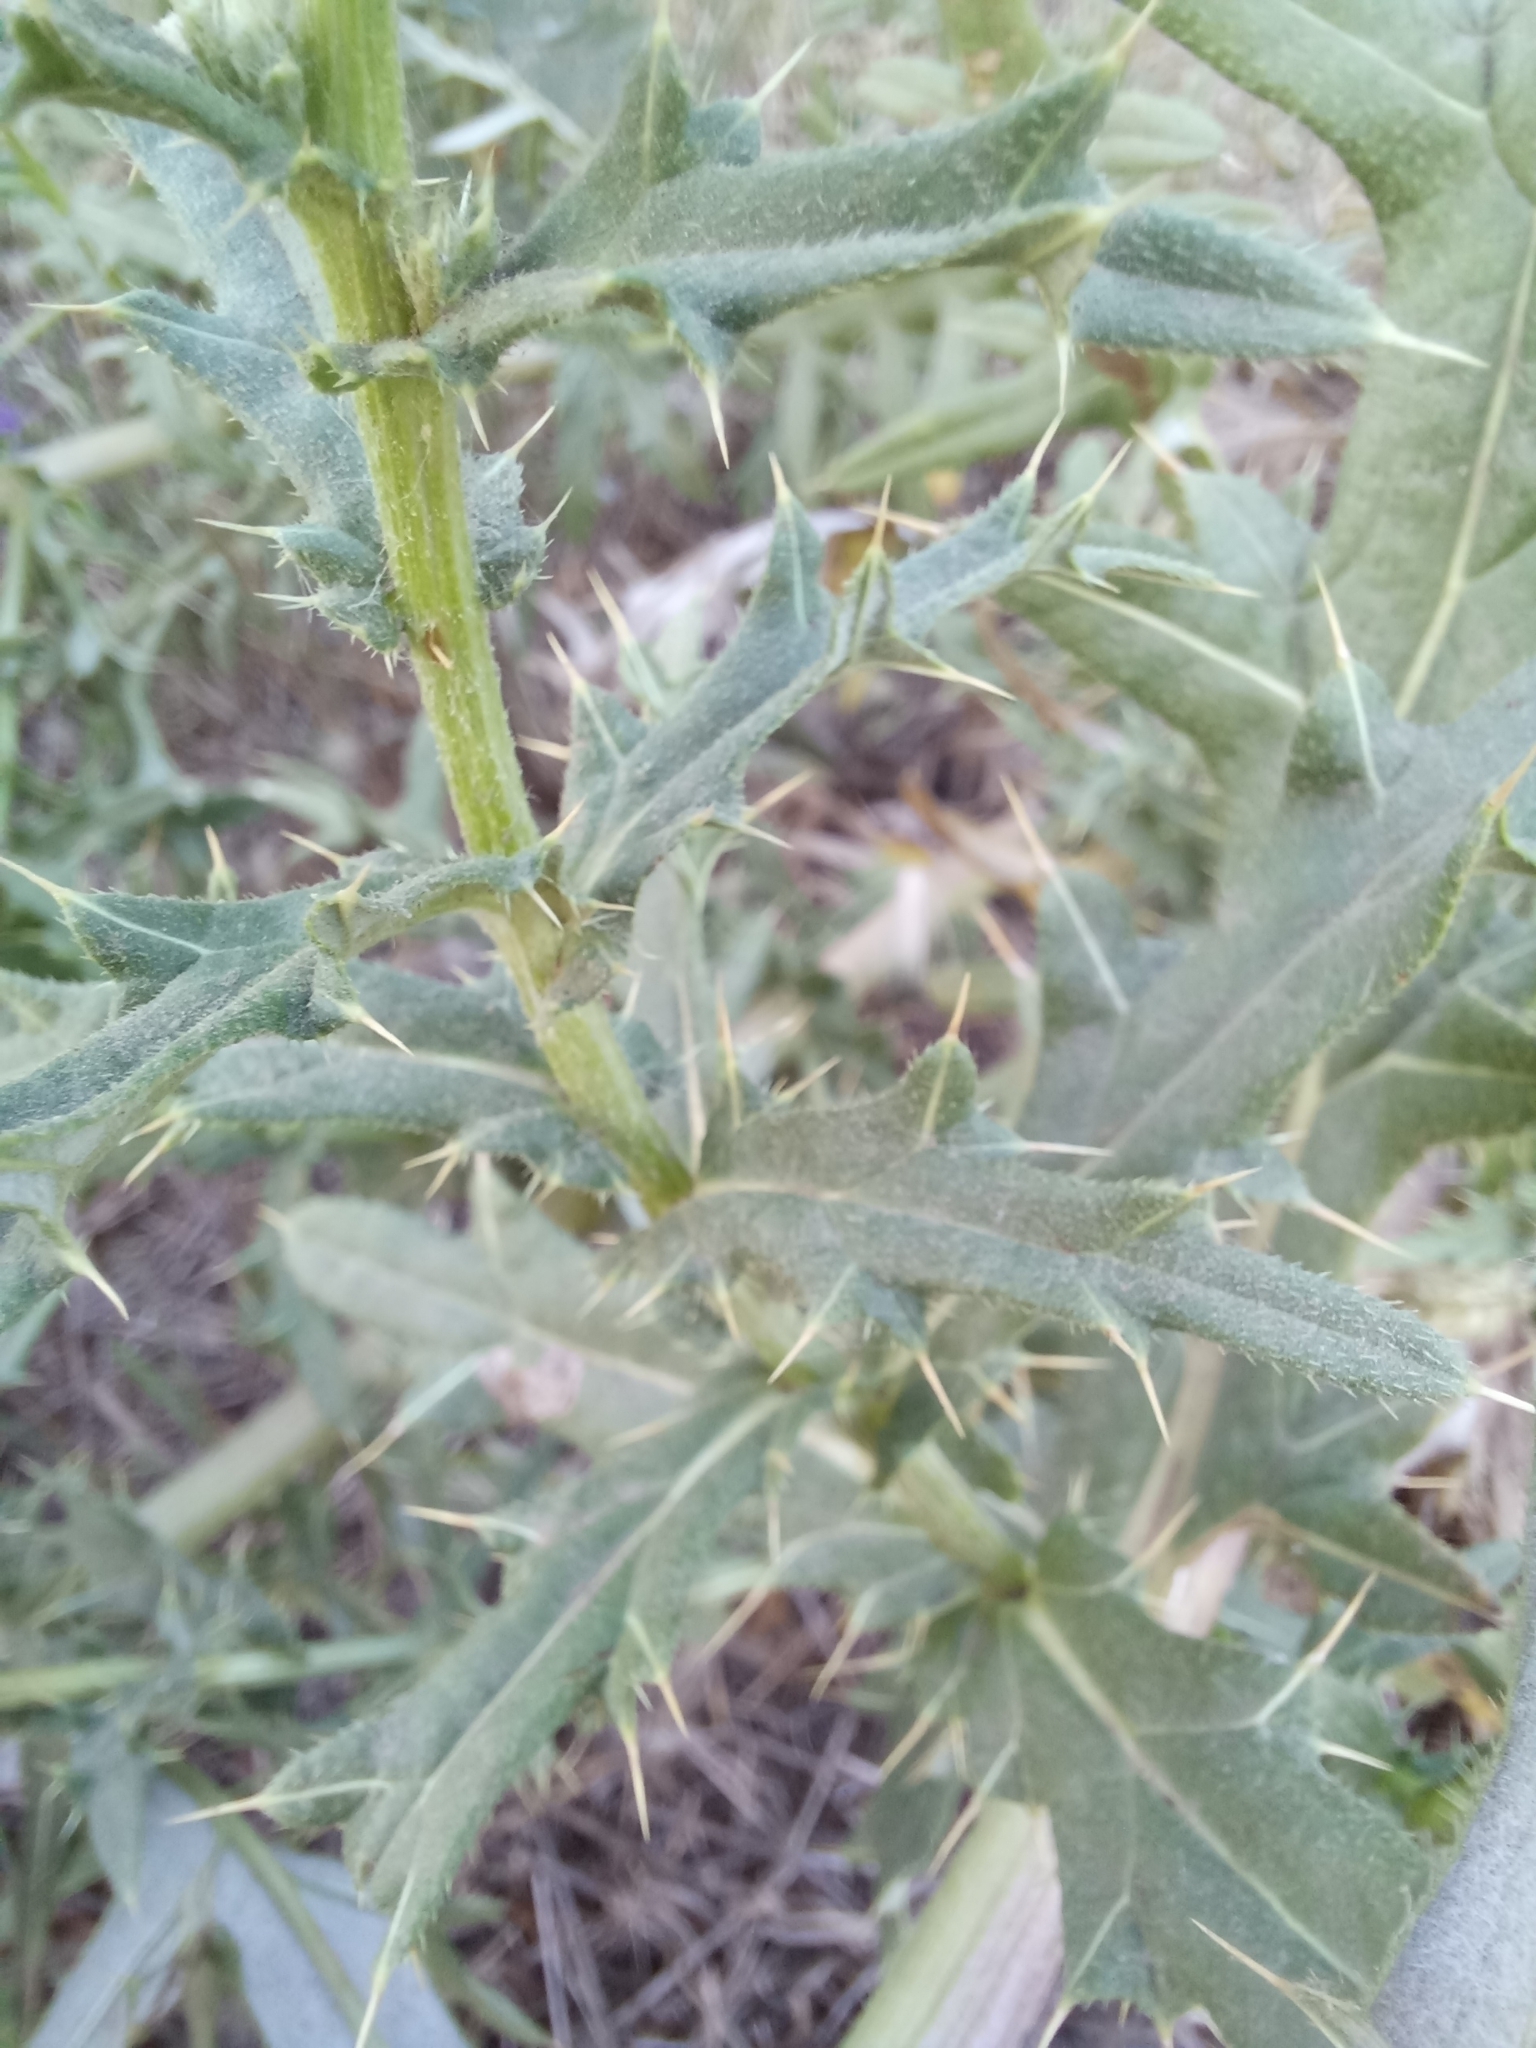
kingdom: Plantae
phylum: Tracheophyta
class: Magnoliopsida
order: Asterales
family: Asteraceae
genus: Cirsium
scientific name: Cirsium serrulatum
